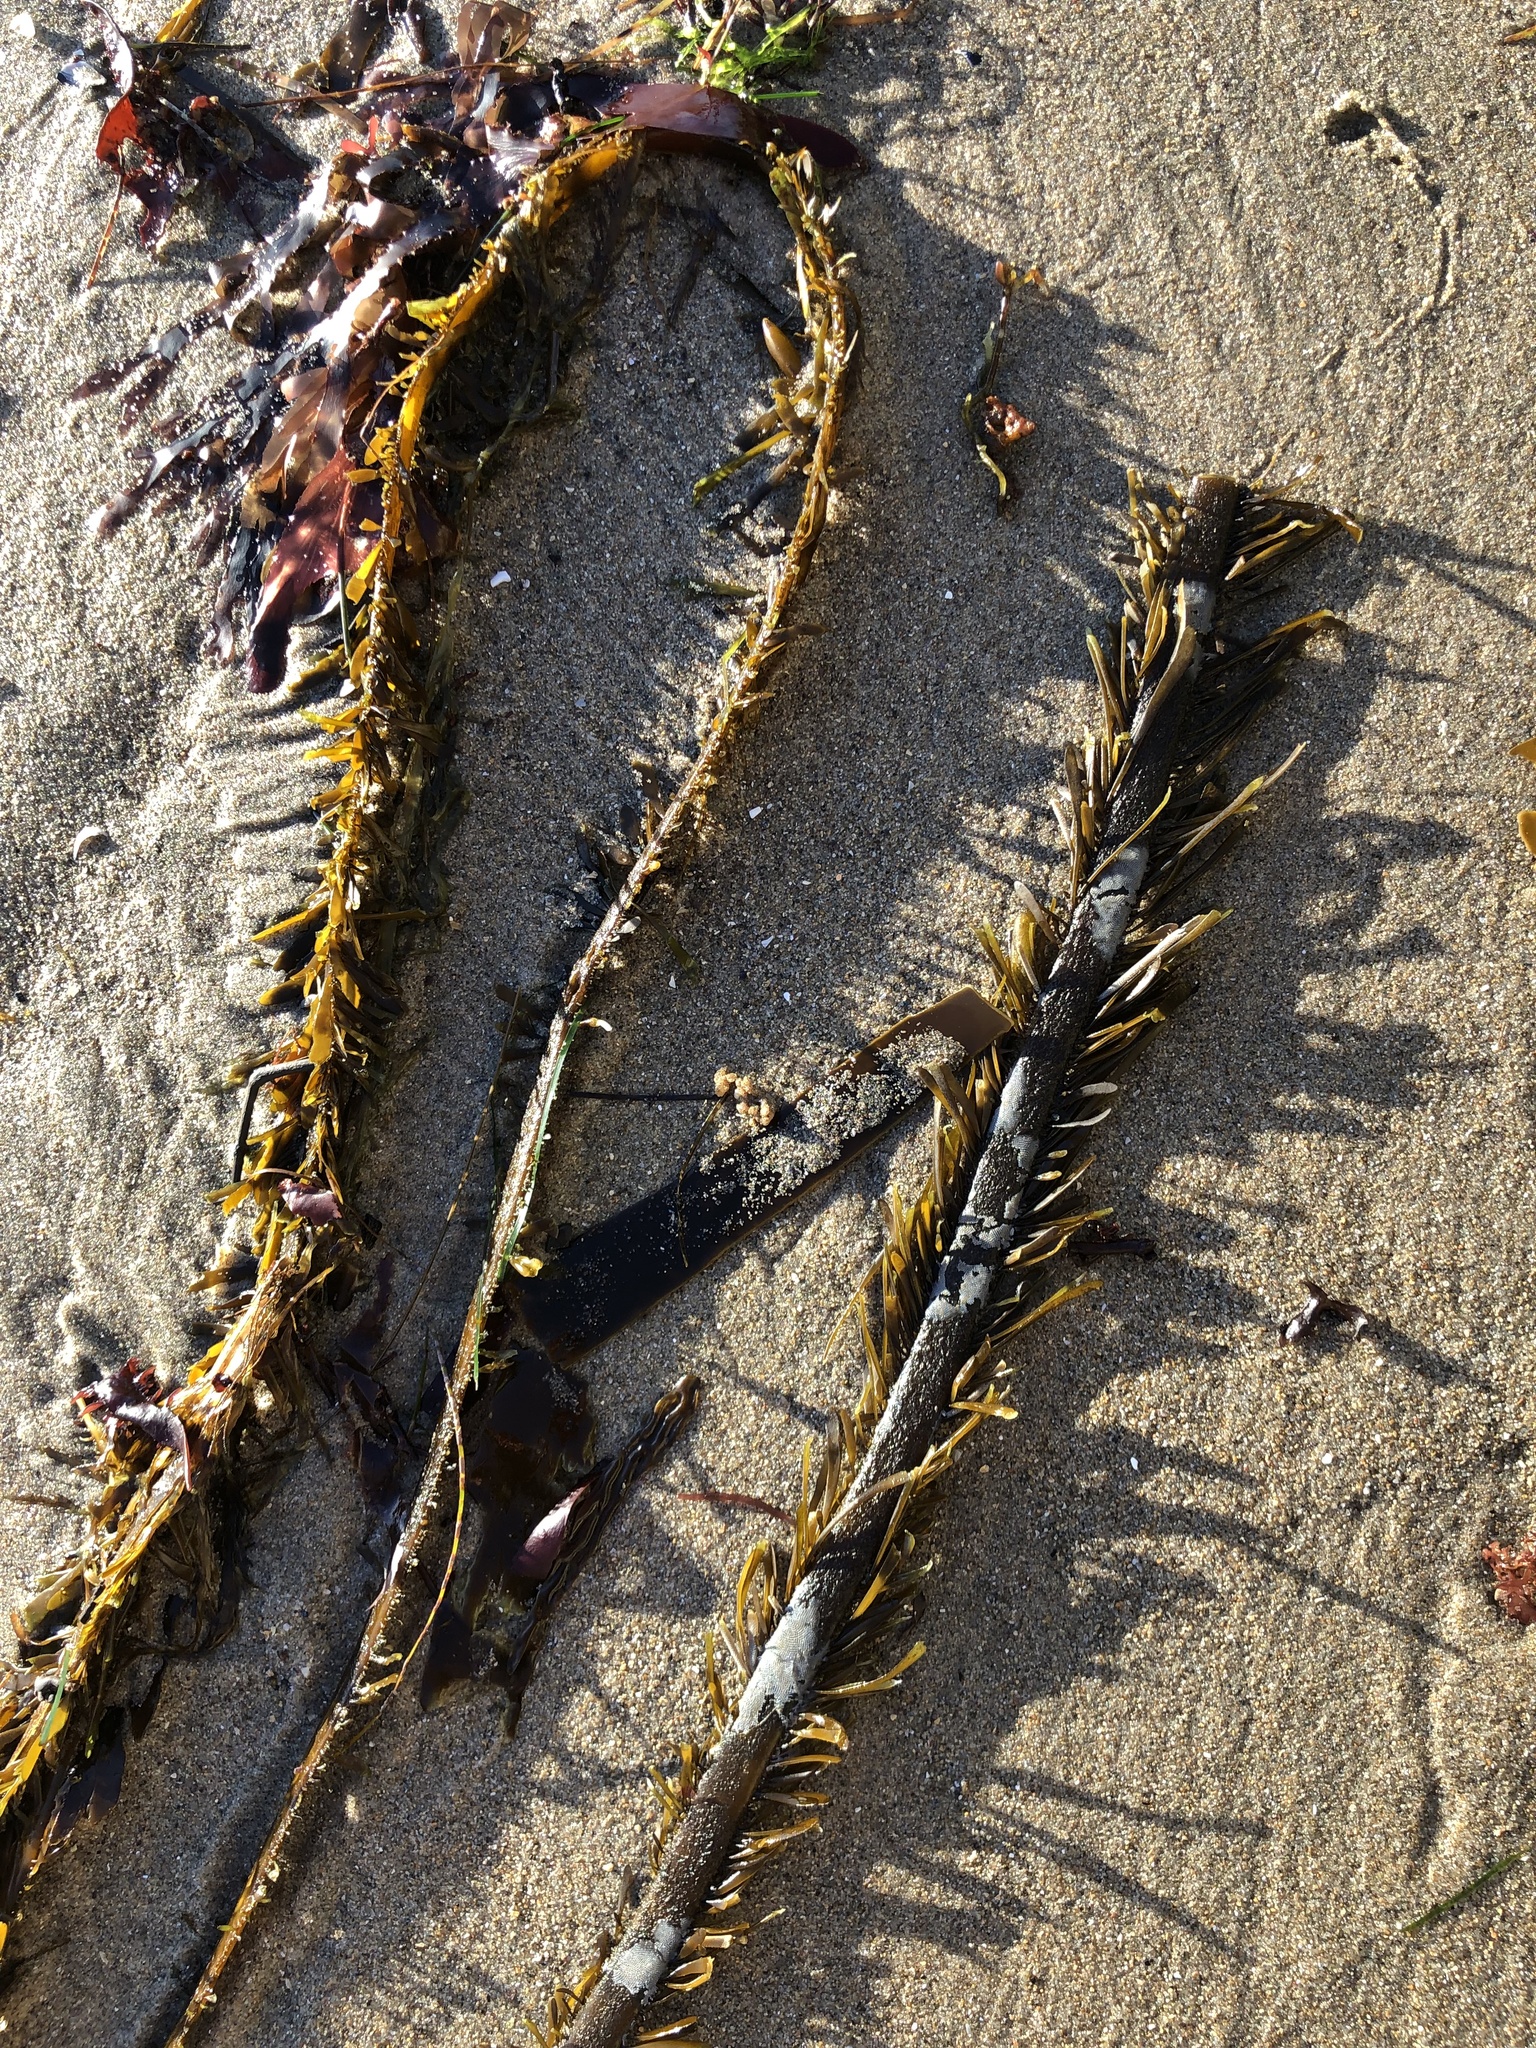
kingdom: Chromista
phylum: Ochrophyta
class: Phaeophyceae
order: Laminariales
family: Lessoniaceae
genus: Egregia
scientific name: Egregia menziesii
